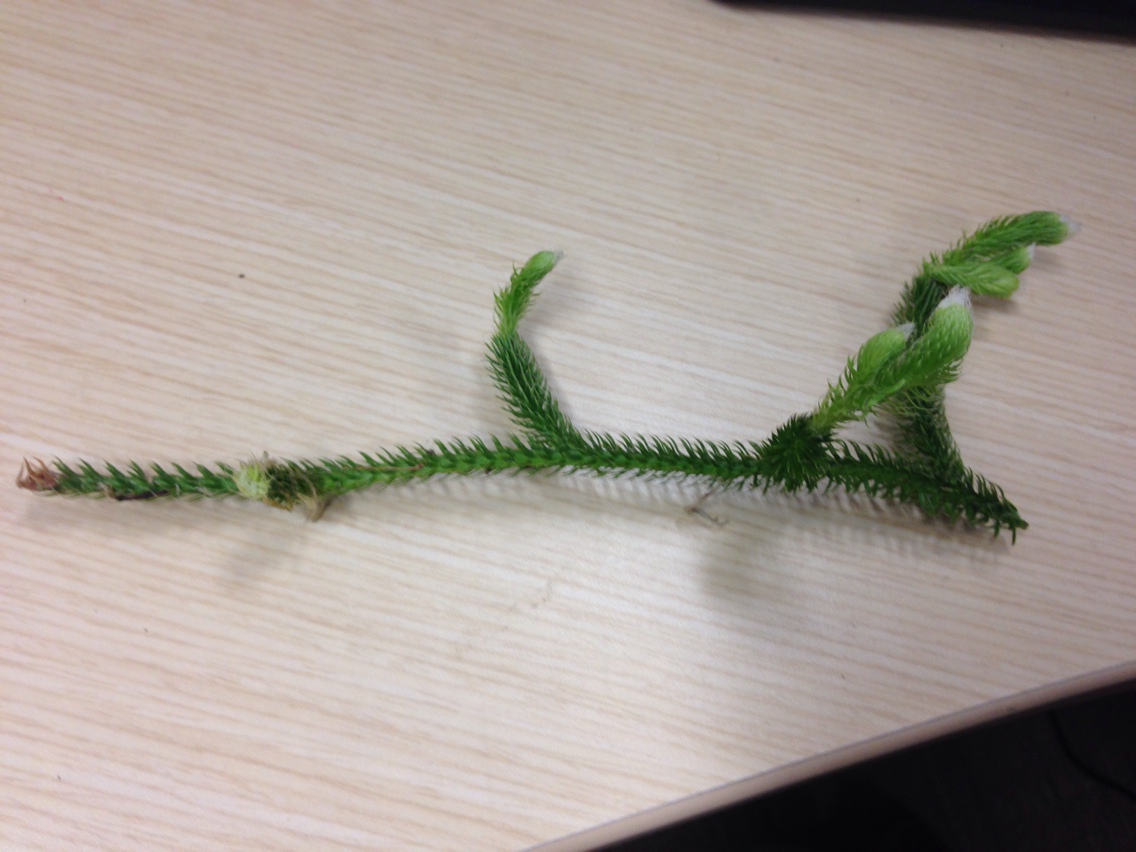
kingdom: Plantae
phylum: Tracheophyta
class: Lycopodiopsida
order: Lycopodiales
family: Lycopodiaceae
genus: Lycopodium
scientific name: Lycopodium clavatum
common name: Stag's-horn clubmoss
